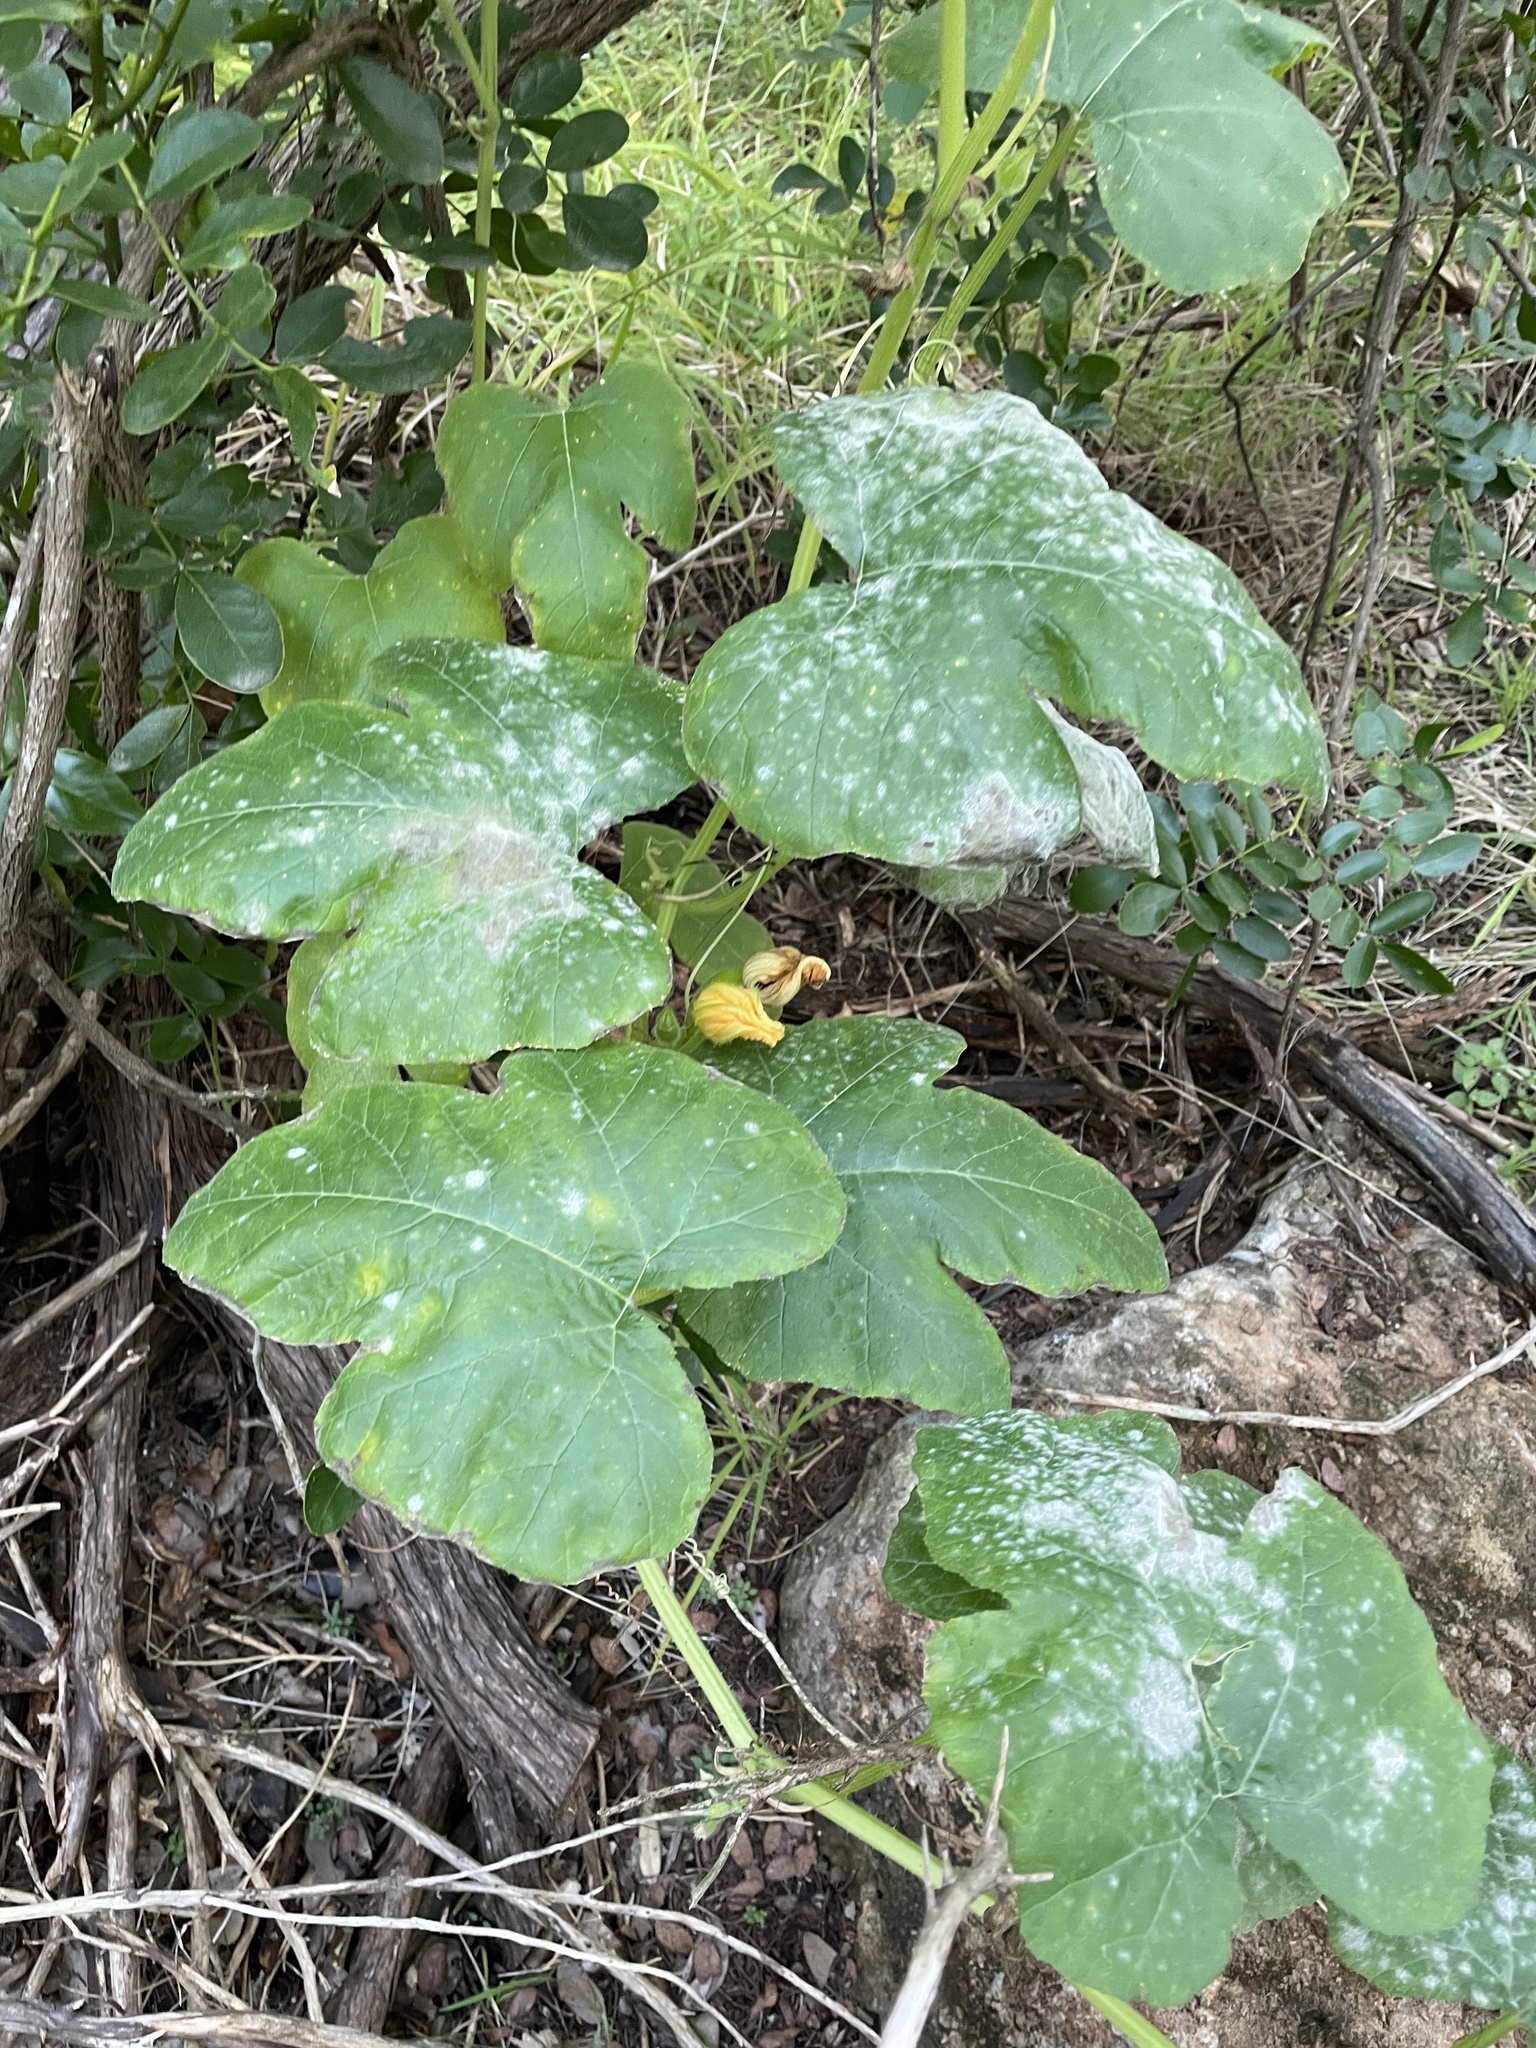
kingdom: Plantae
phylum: Tracheophyta
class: Magnoliopsida
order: Cucurbitales
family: Cucurbitaceae
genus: Cucurbita
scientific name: Cucurbita maxima
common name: Pumpkin
